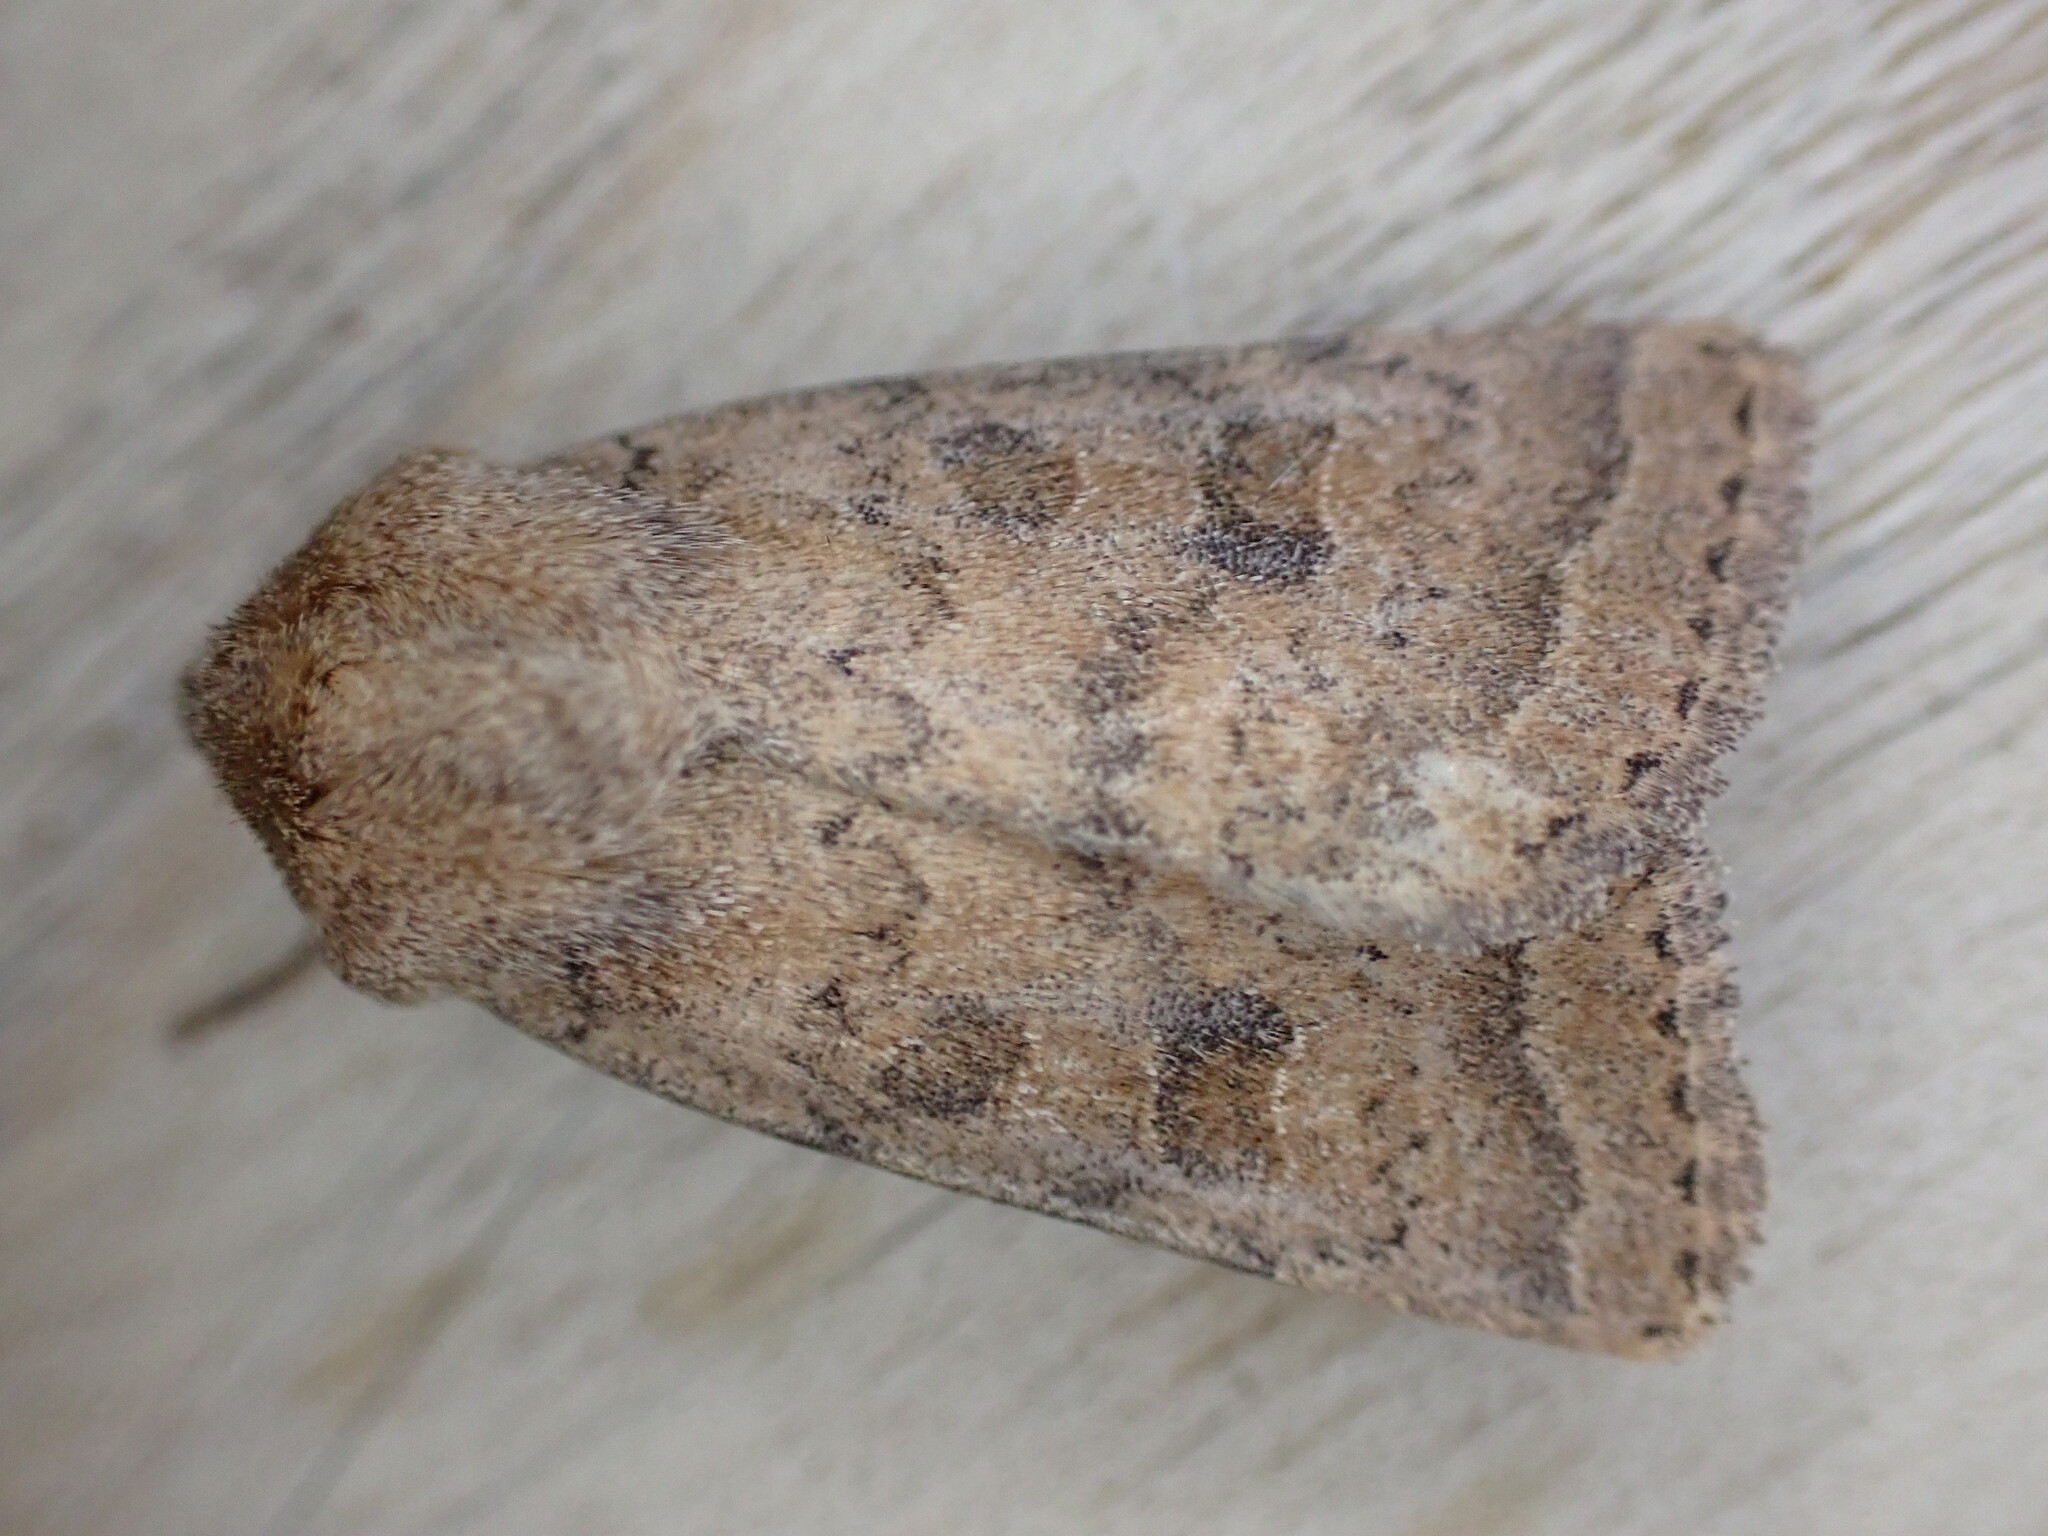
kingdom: Animalia
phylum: Arthropoda
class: Insecta
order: Lepidoptera
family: Noctuidae
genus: Hoplodrina
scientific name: Hoplodrina octogenaria
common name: Uncertain
